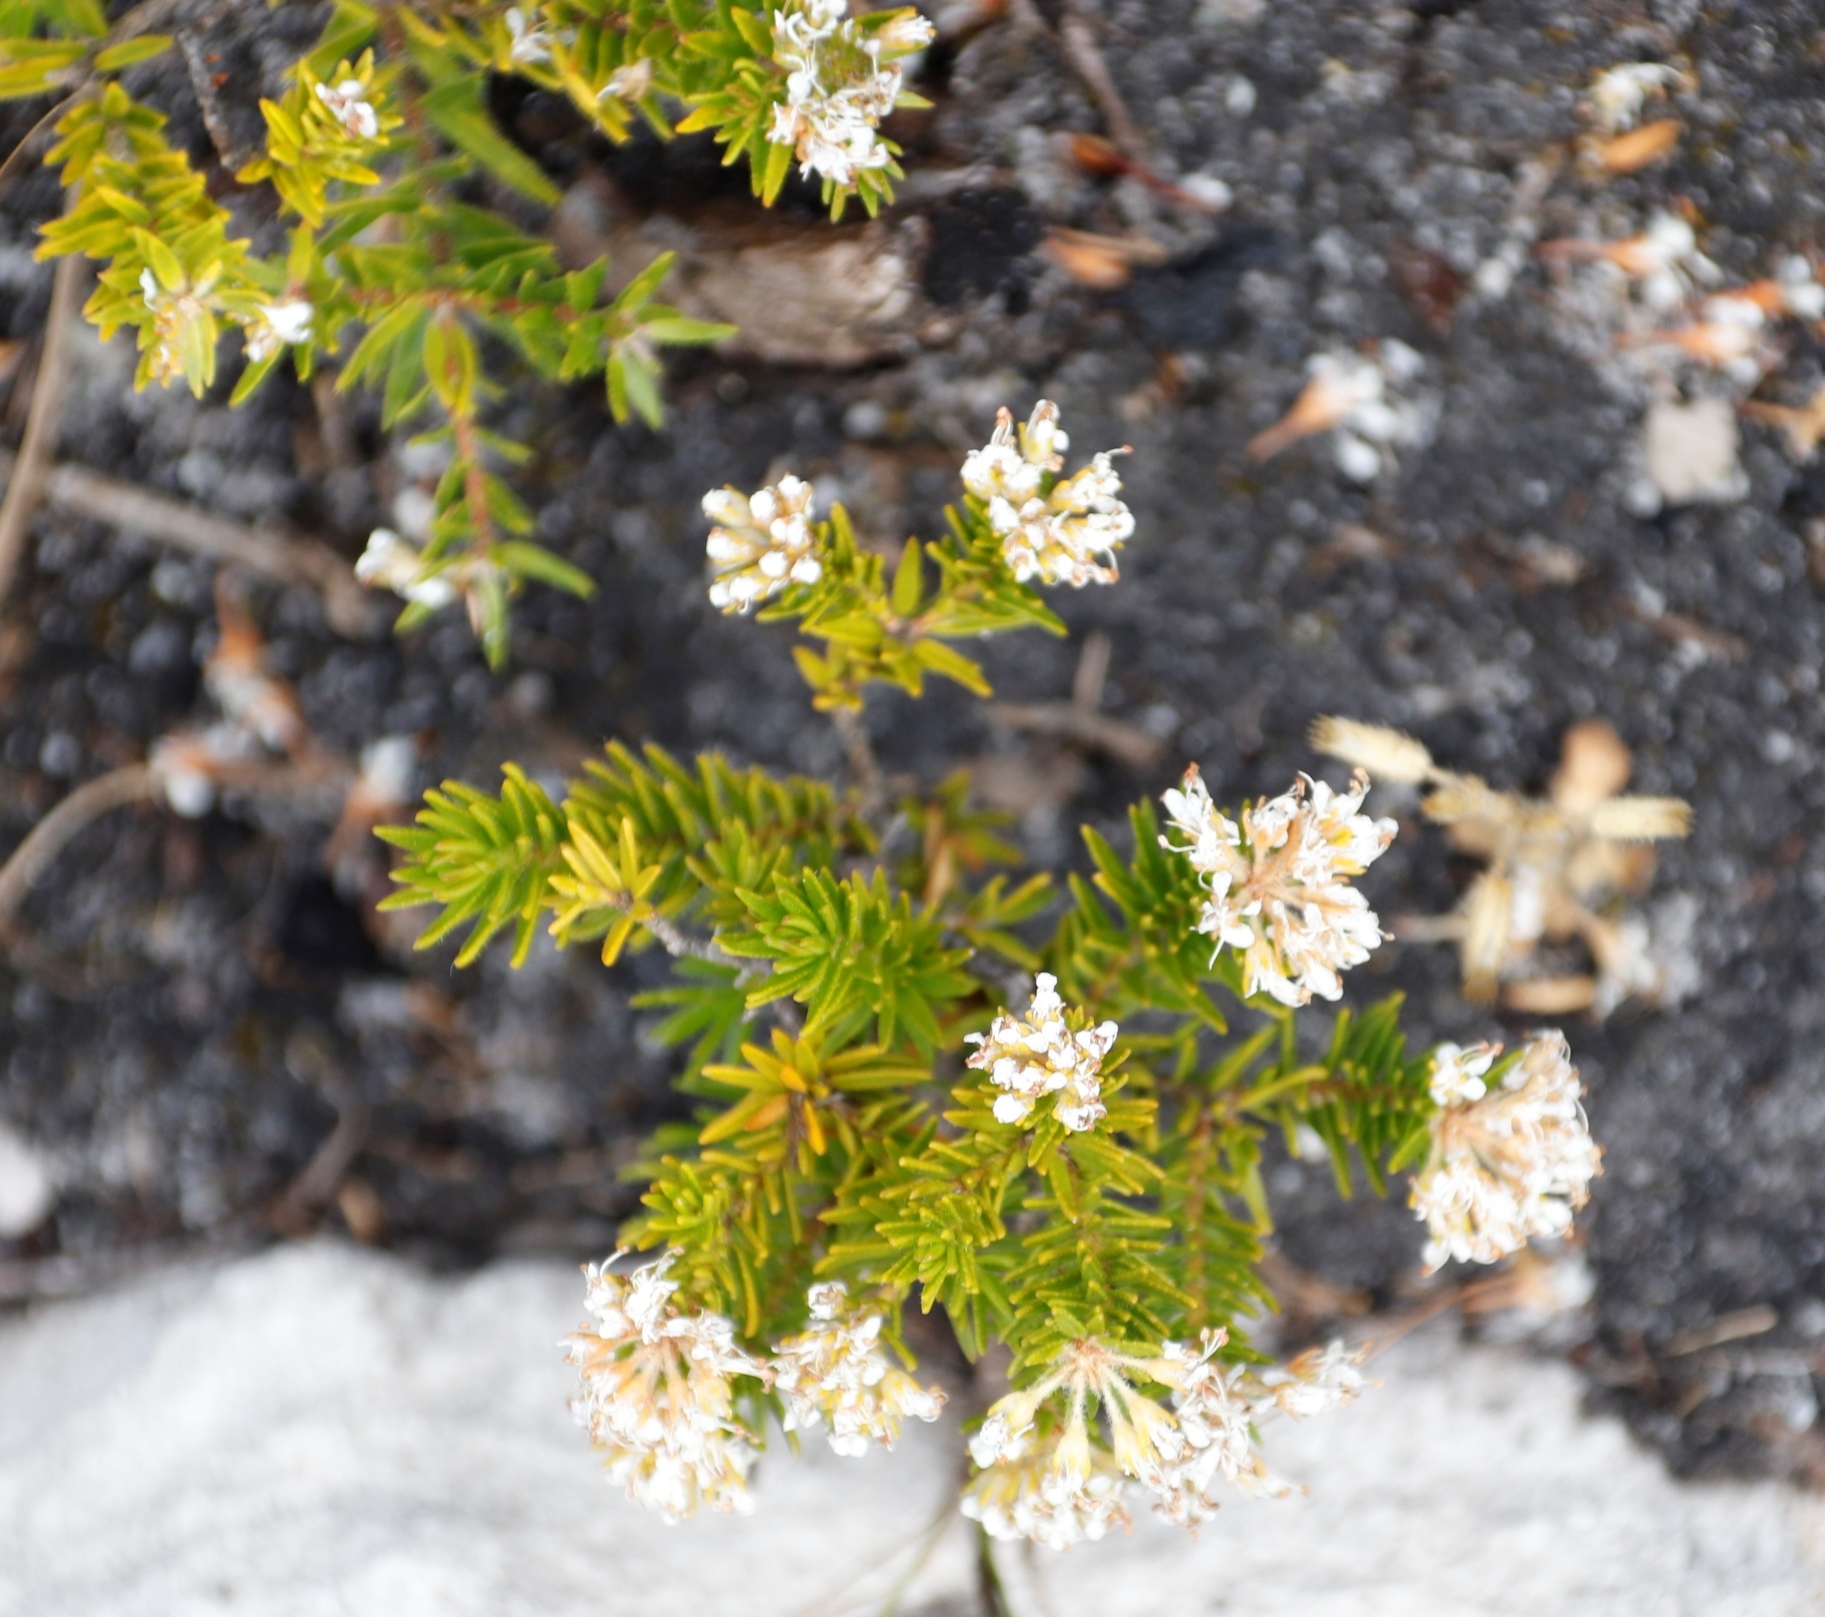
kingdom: Plantae
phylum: Tracheophyta
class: Magnoliopsida
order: Sapindales
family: Rutaceae
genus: Agathosma
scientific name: Agathosma capensis
